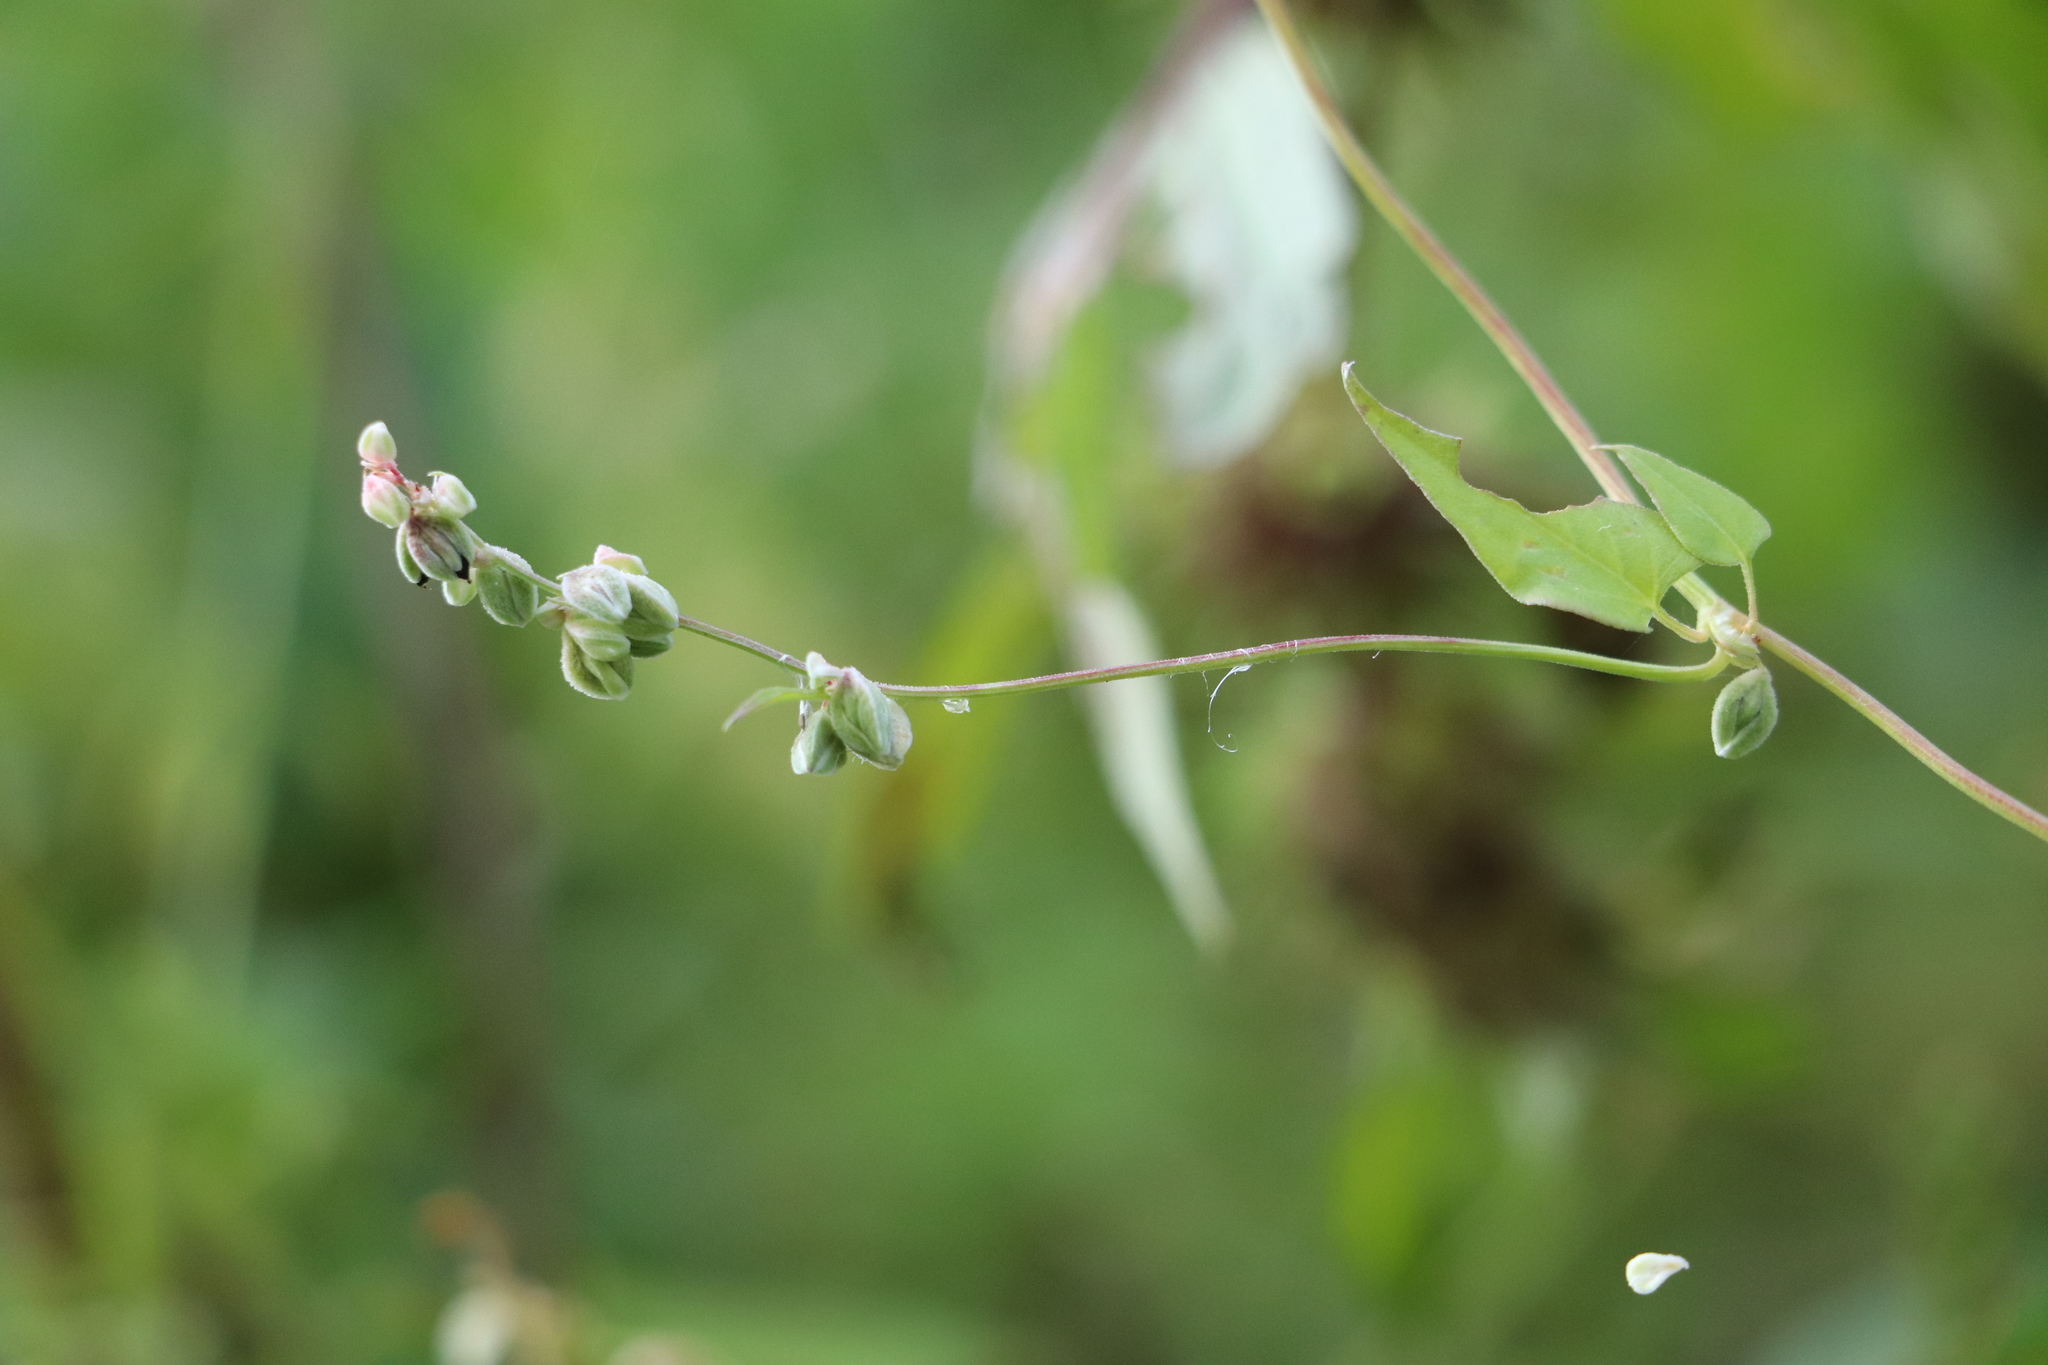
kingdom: Plantae
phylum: Tracheophyta
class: Magnoliopsida
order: Caryophyllales
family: Polygonaceae
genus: Fallopia
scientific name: Fallopia convolvulus
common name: Black bindweed
